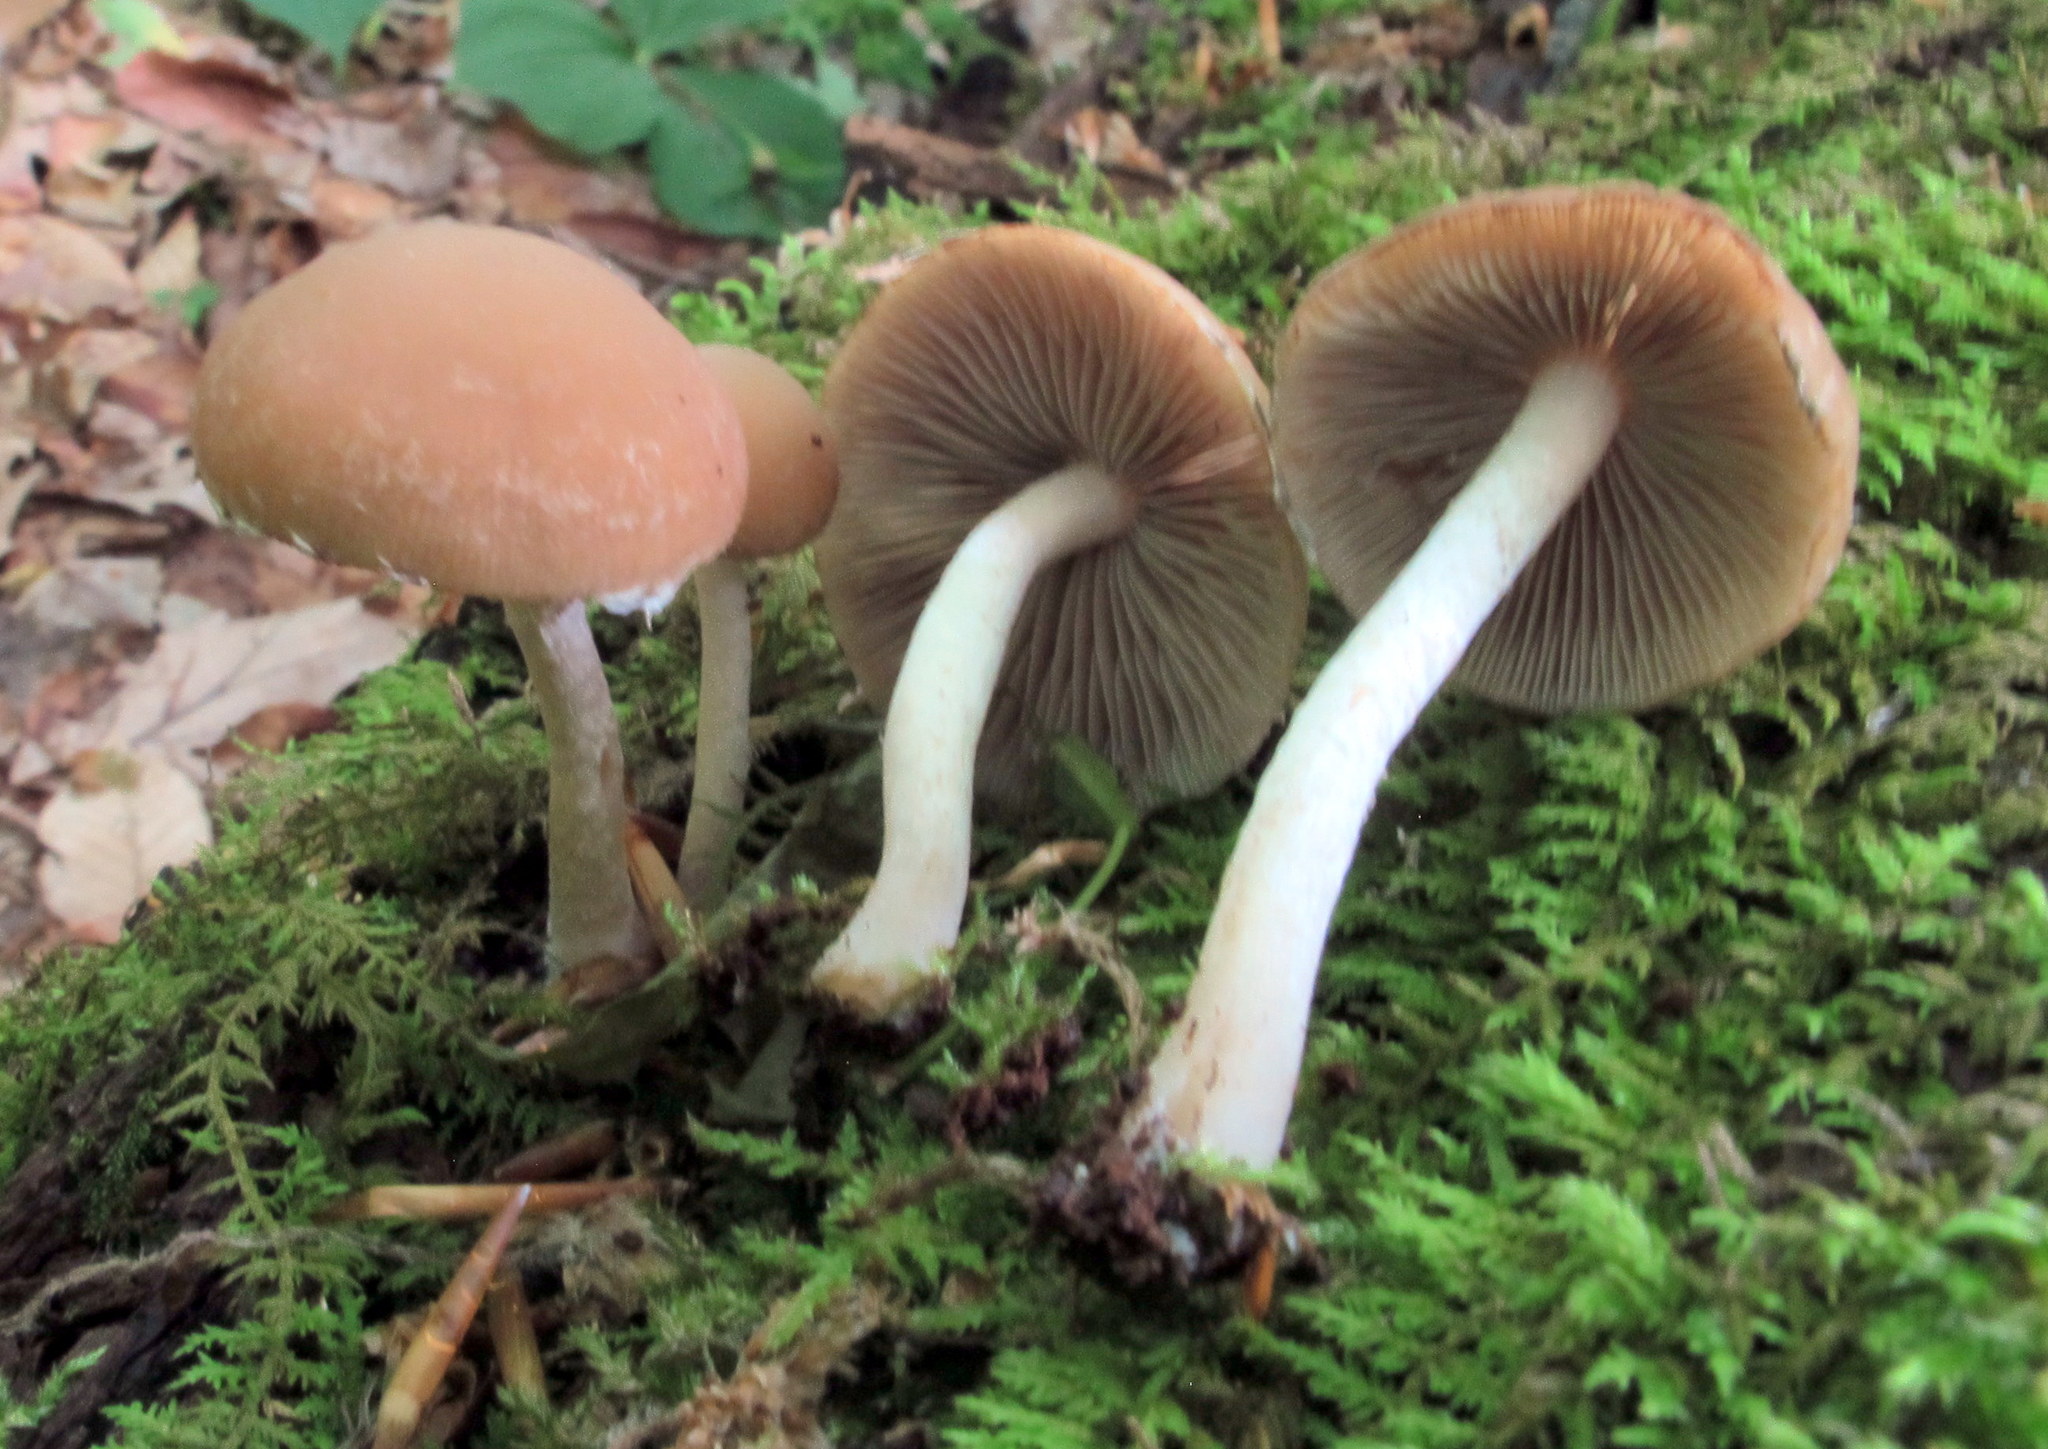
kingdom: Fungi
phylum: Basidiomycota
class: Agaricomycetes
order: Agaricales
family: Psathyrellaceae
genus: Psathyrella
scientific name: Psathyrella piluliformis
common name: Common stump brittlestem
